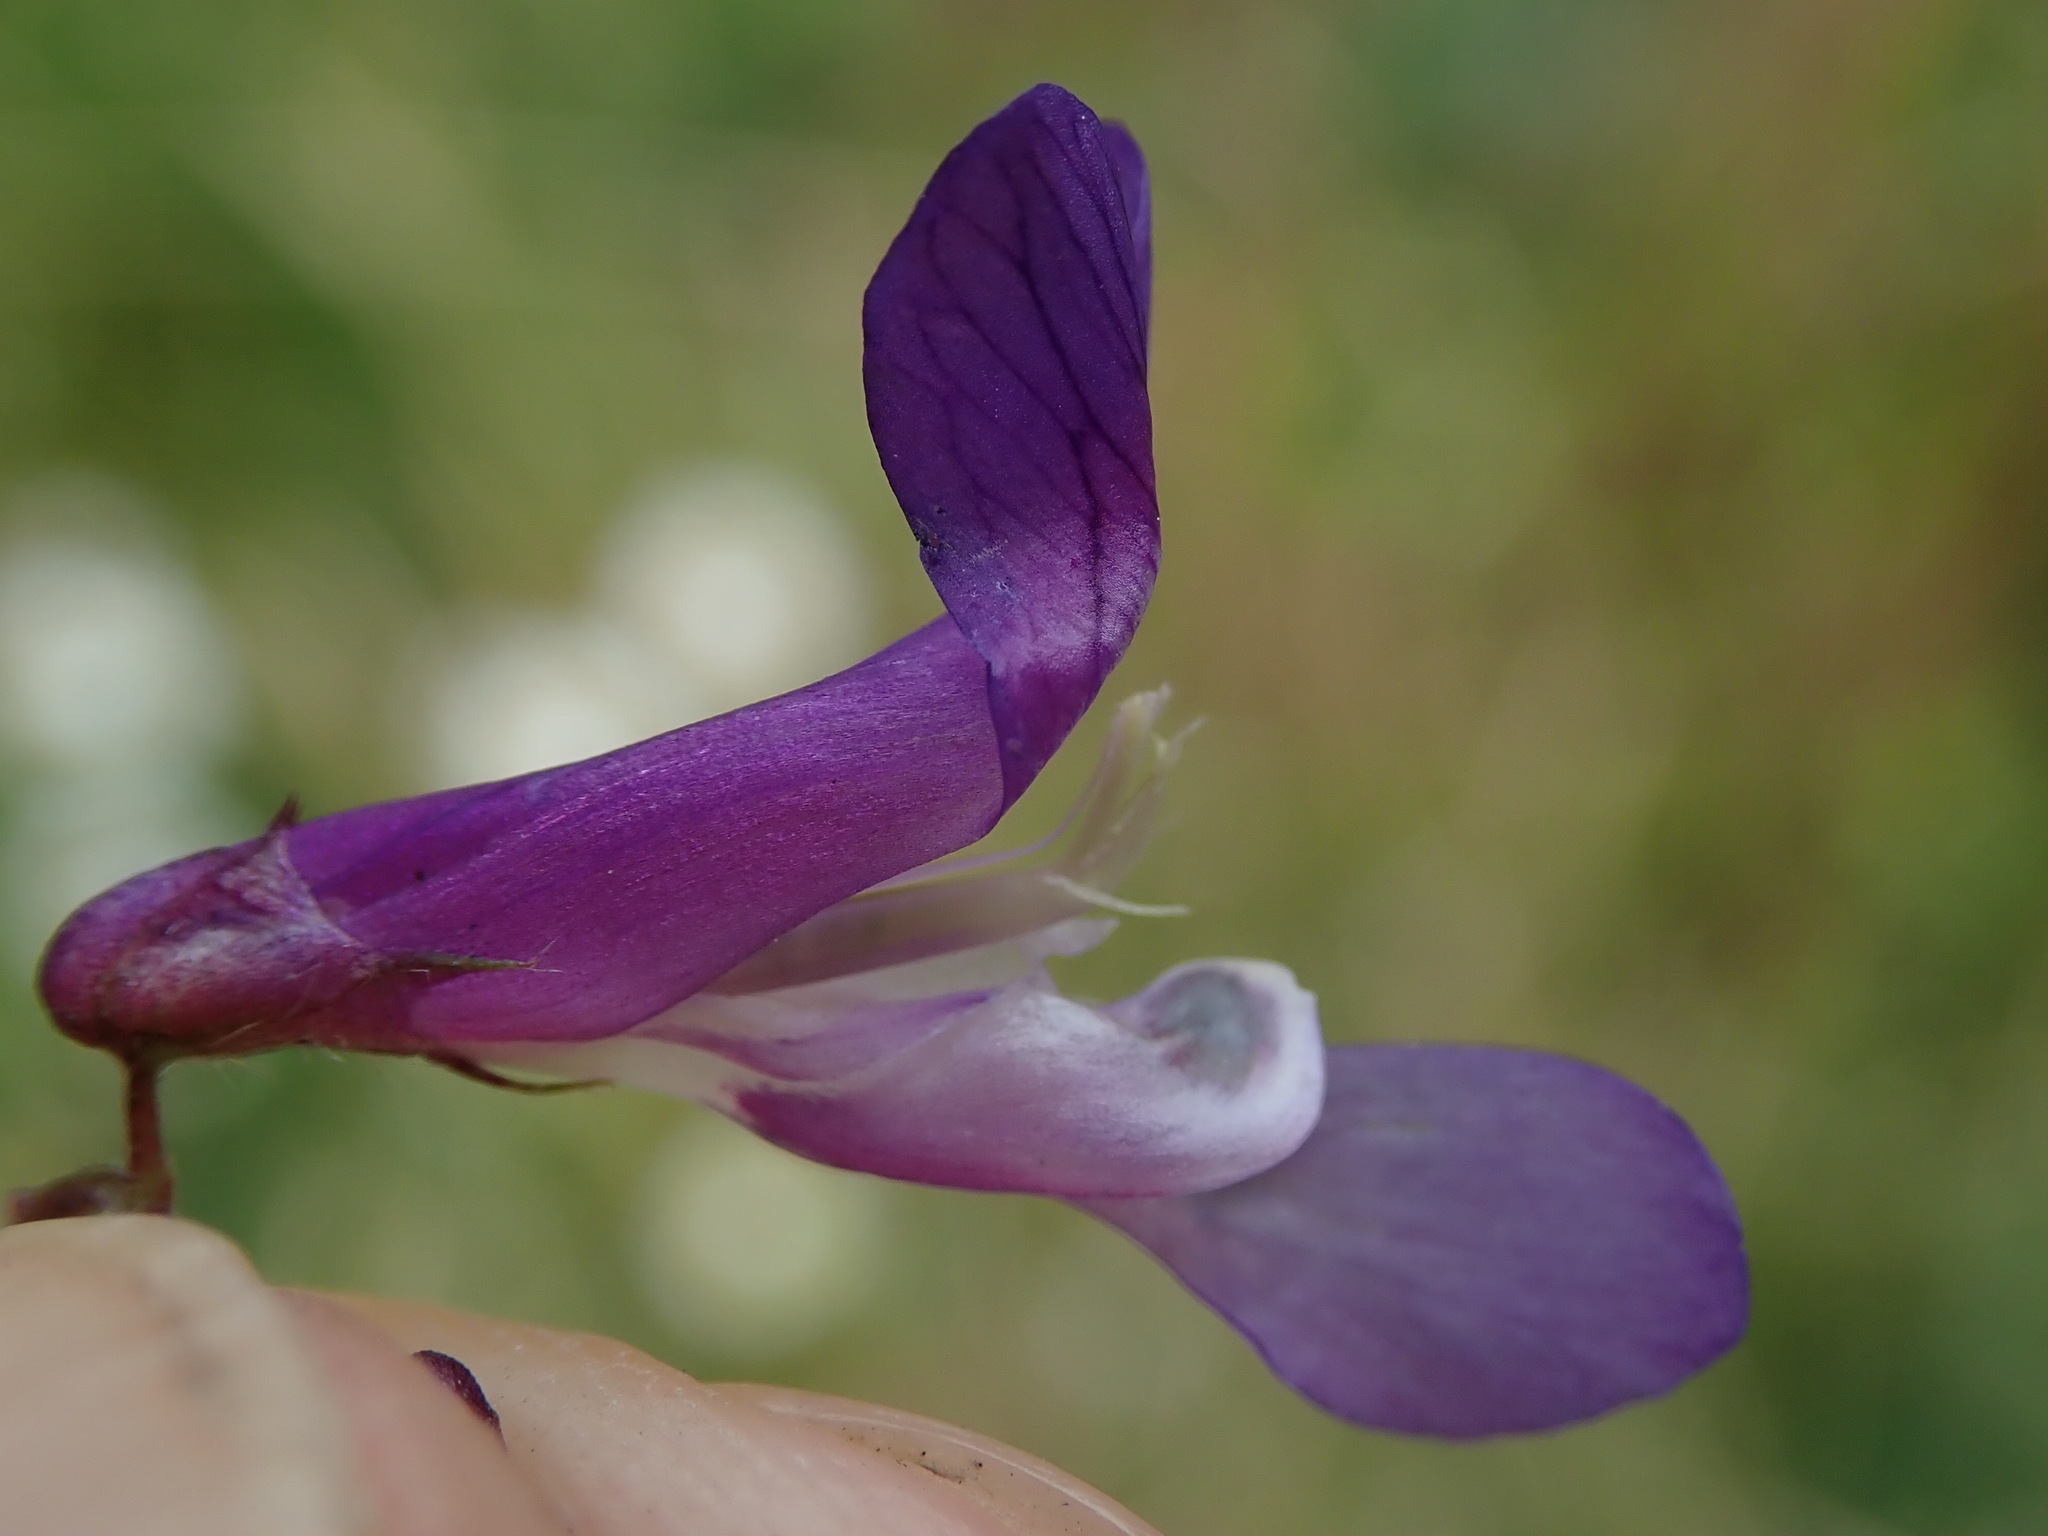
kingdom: Plantae
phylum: Tracheophyta
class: Magnoliopsida
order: Fabales
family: Fabaceae
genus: Vicia
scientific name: Vicia villosa
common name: Fodder vetch
